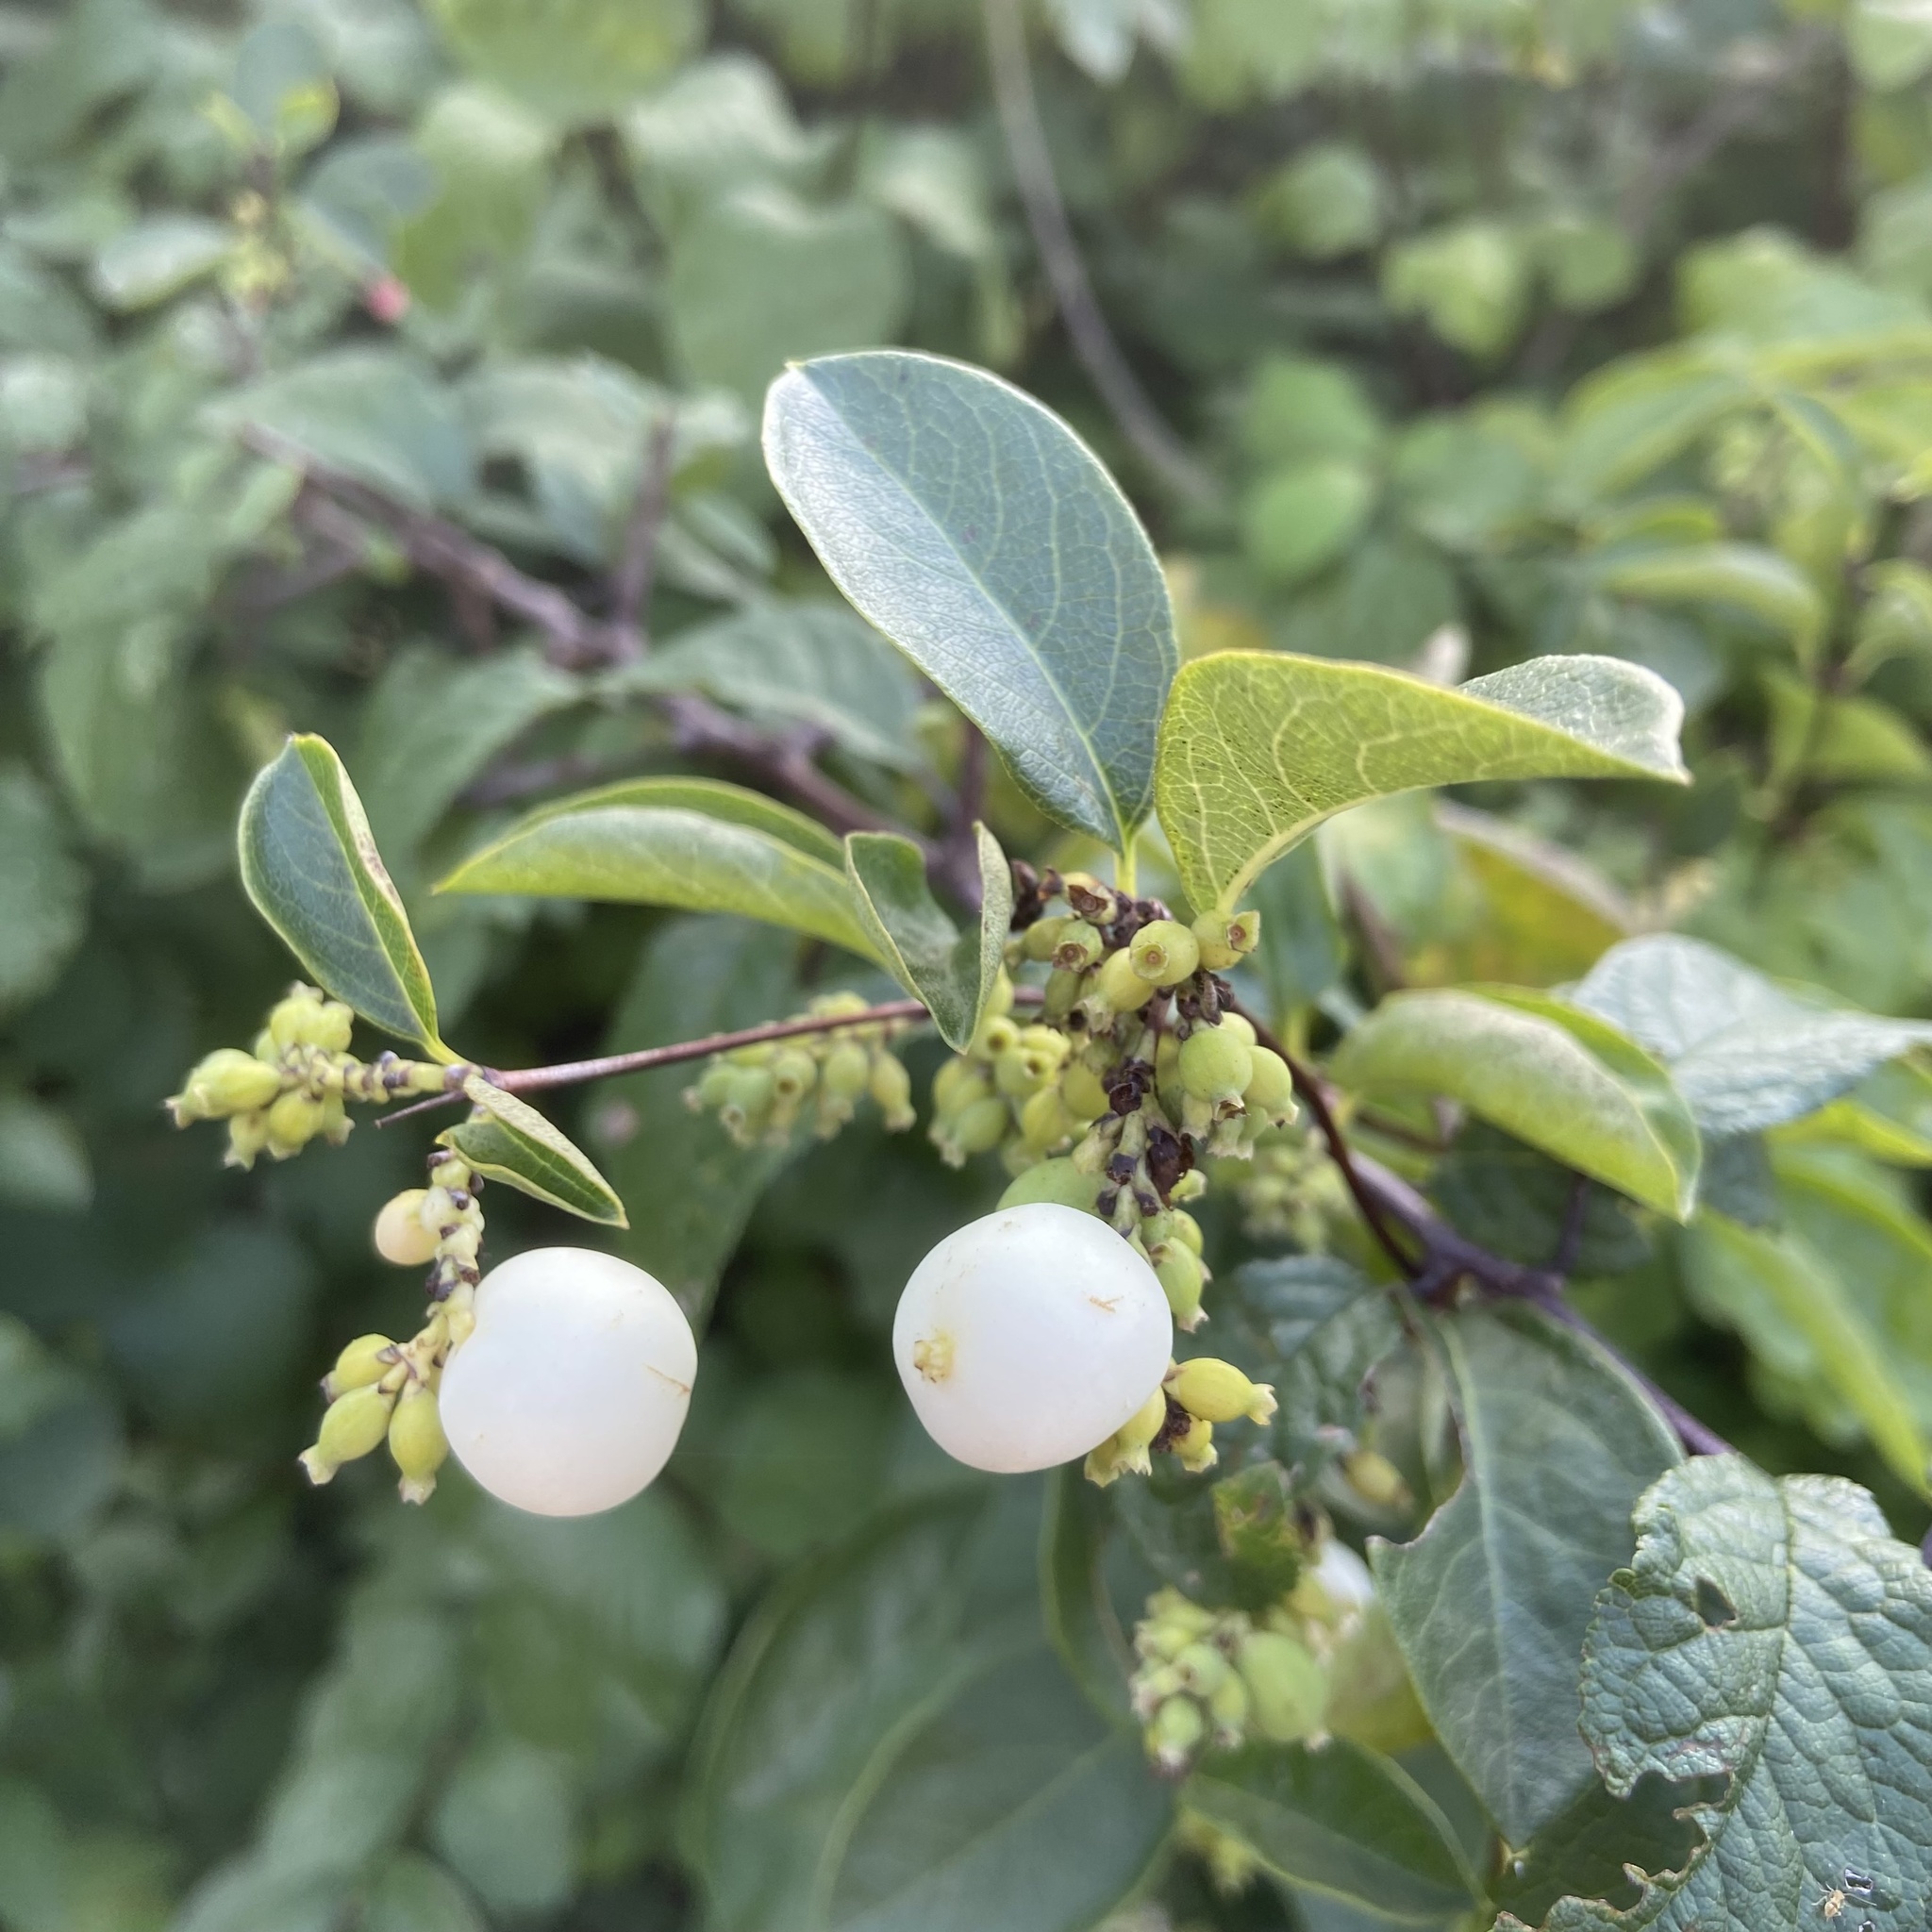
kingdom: Plantae
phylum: Tracheophyta
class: Magnoliopsida
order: Dipsacales
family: Caprifoliaceae
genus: Symphoricarpos
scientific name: Symphoricarpos albus
